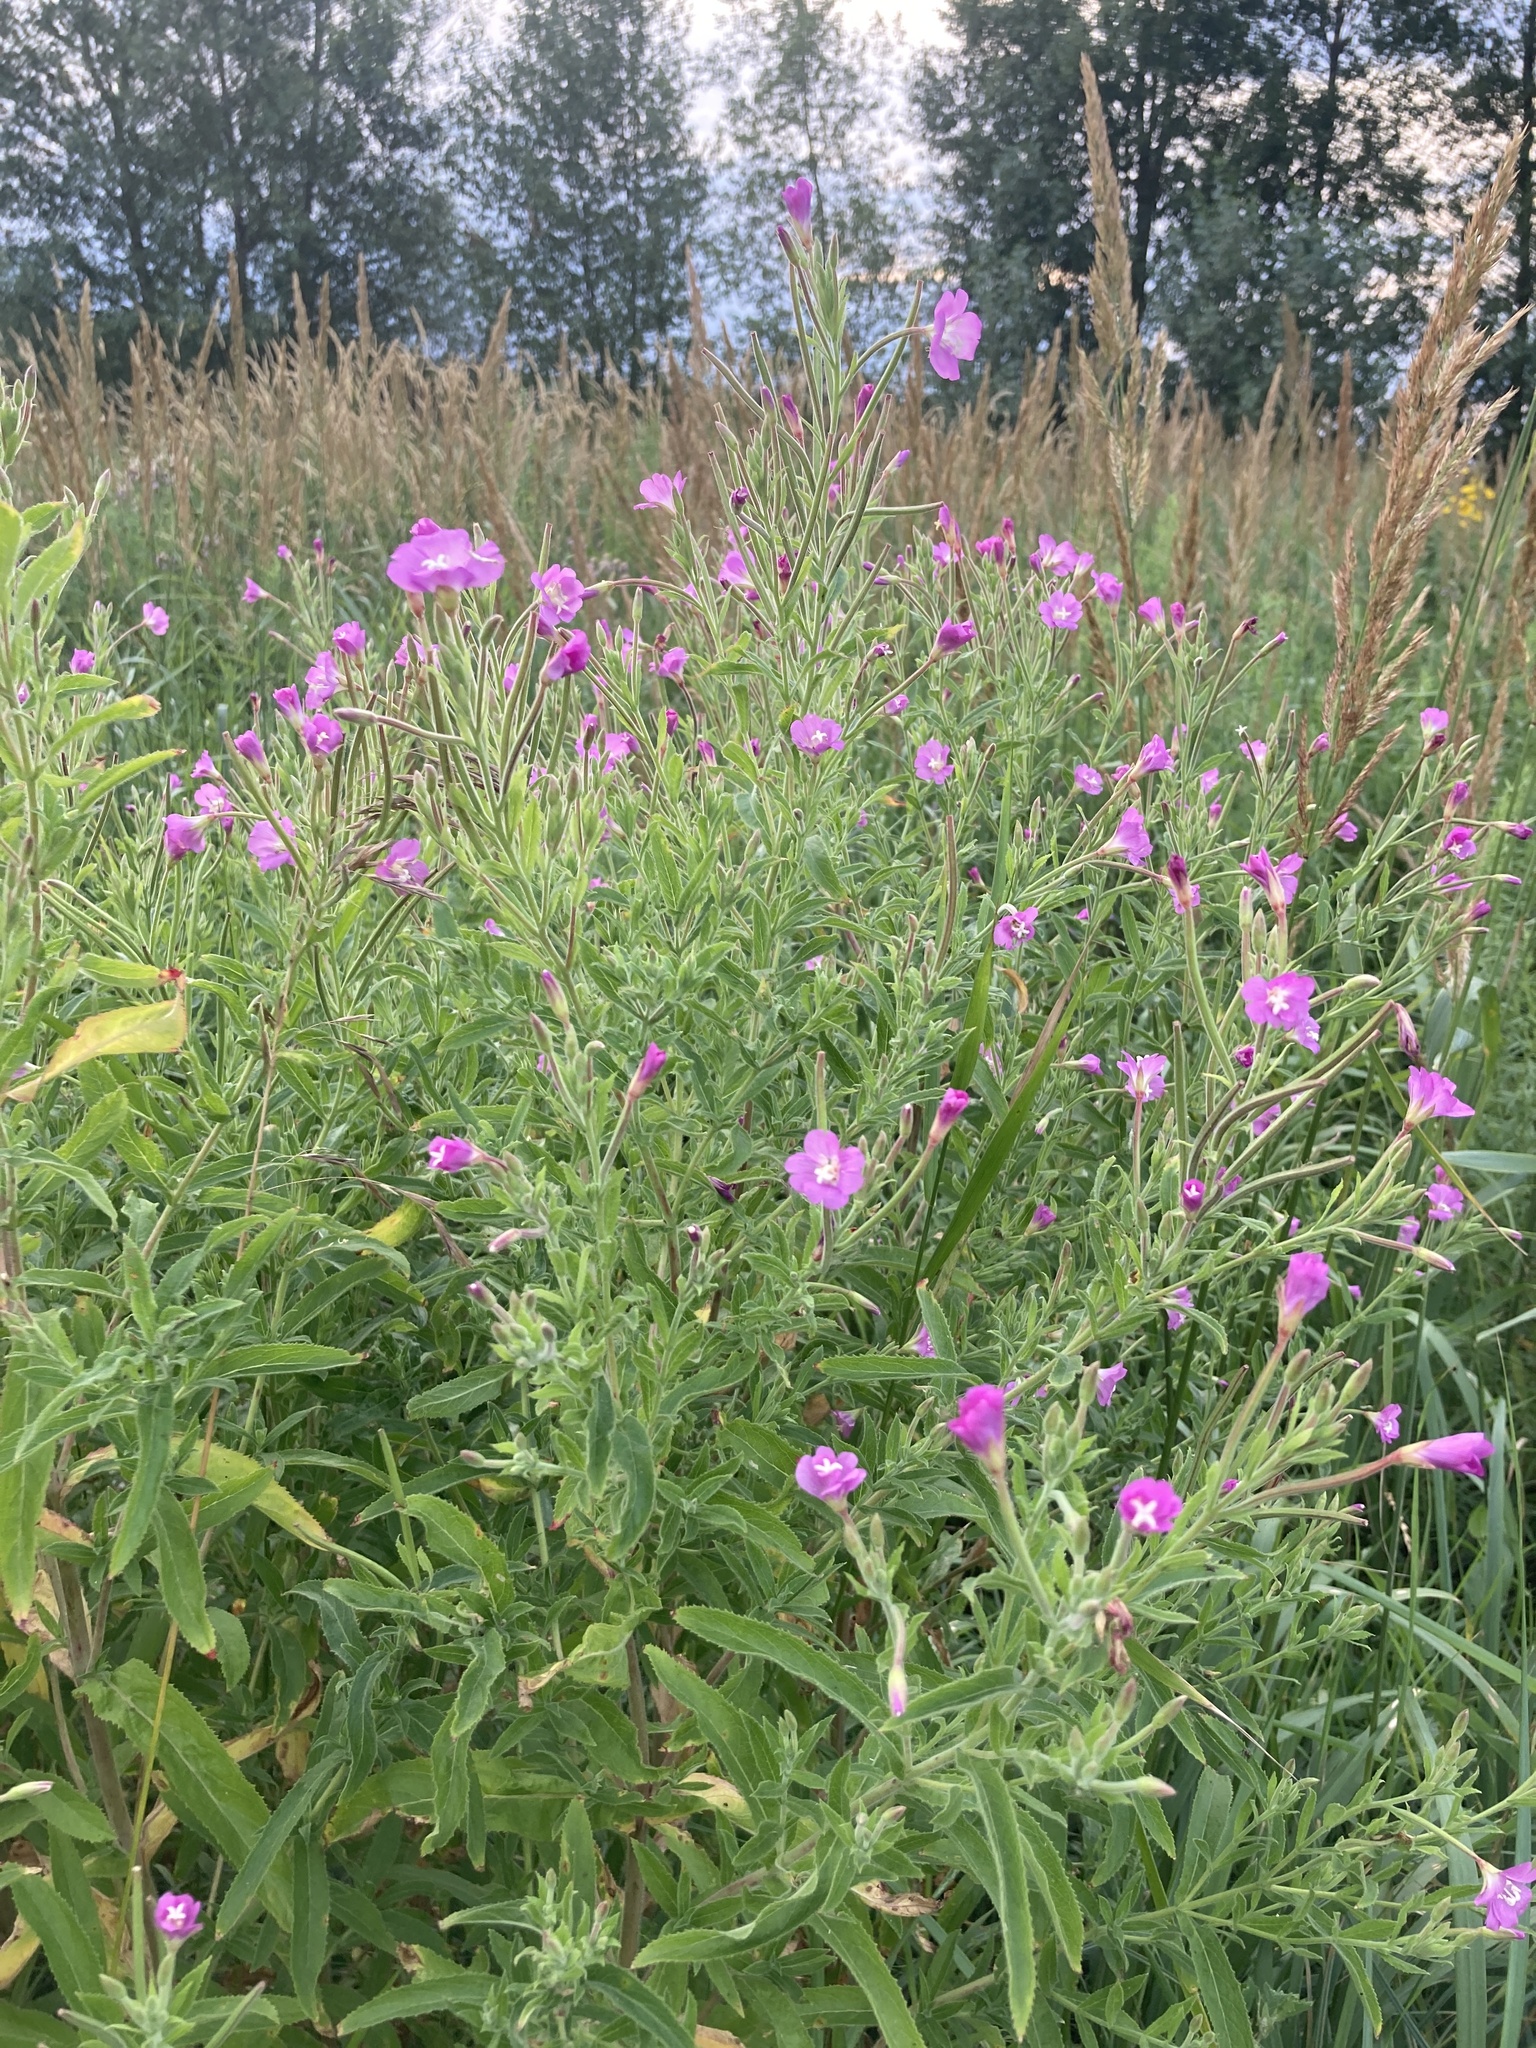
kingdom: Plantae
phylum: Tracheophyta
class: Magnoliopsida
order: Myrtales
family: Onagraceae
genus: Epilobium
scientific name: Epilobium hirsutum
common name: Great willowherb
